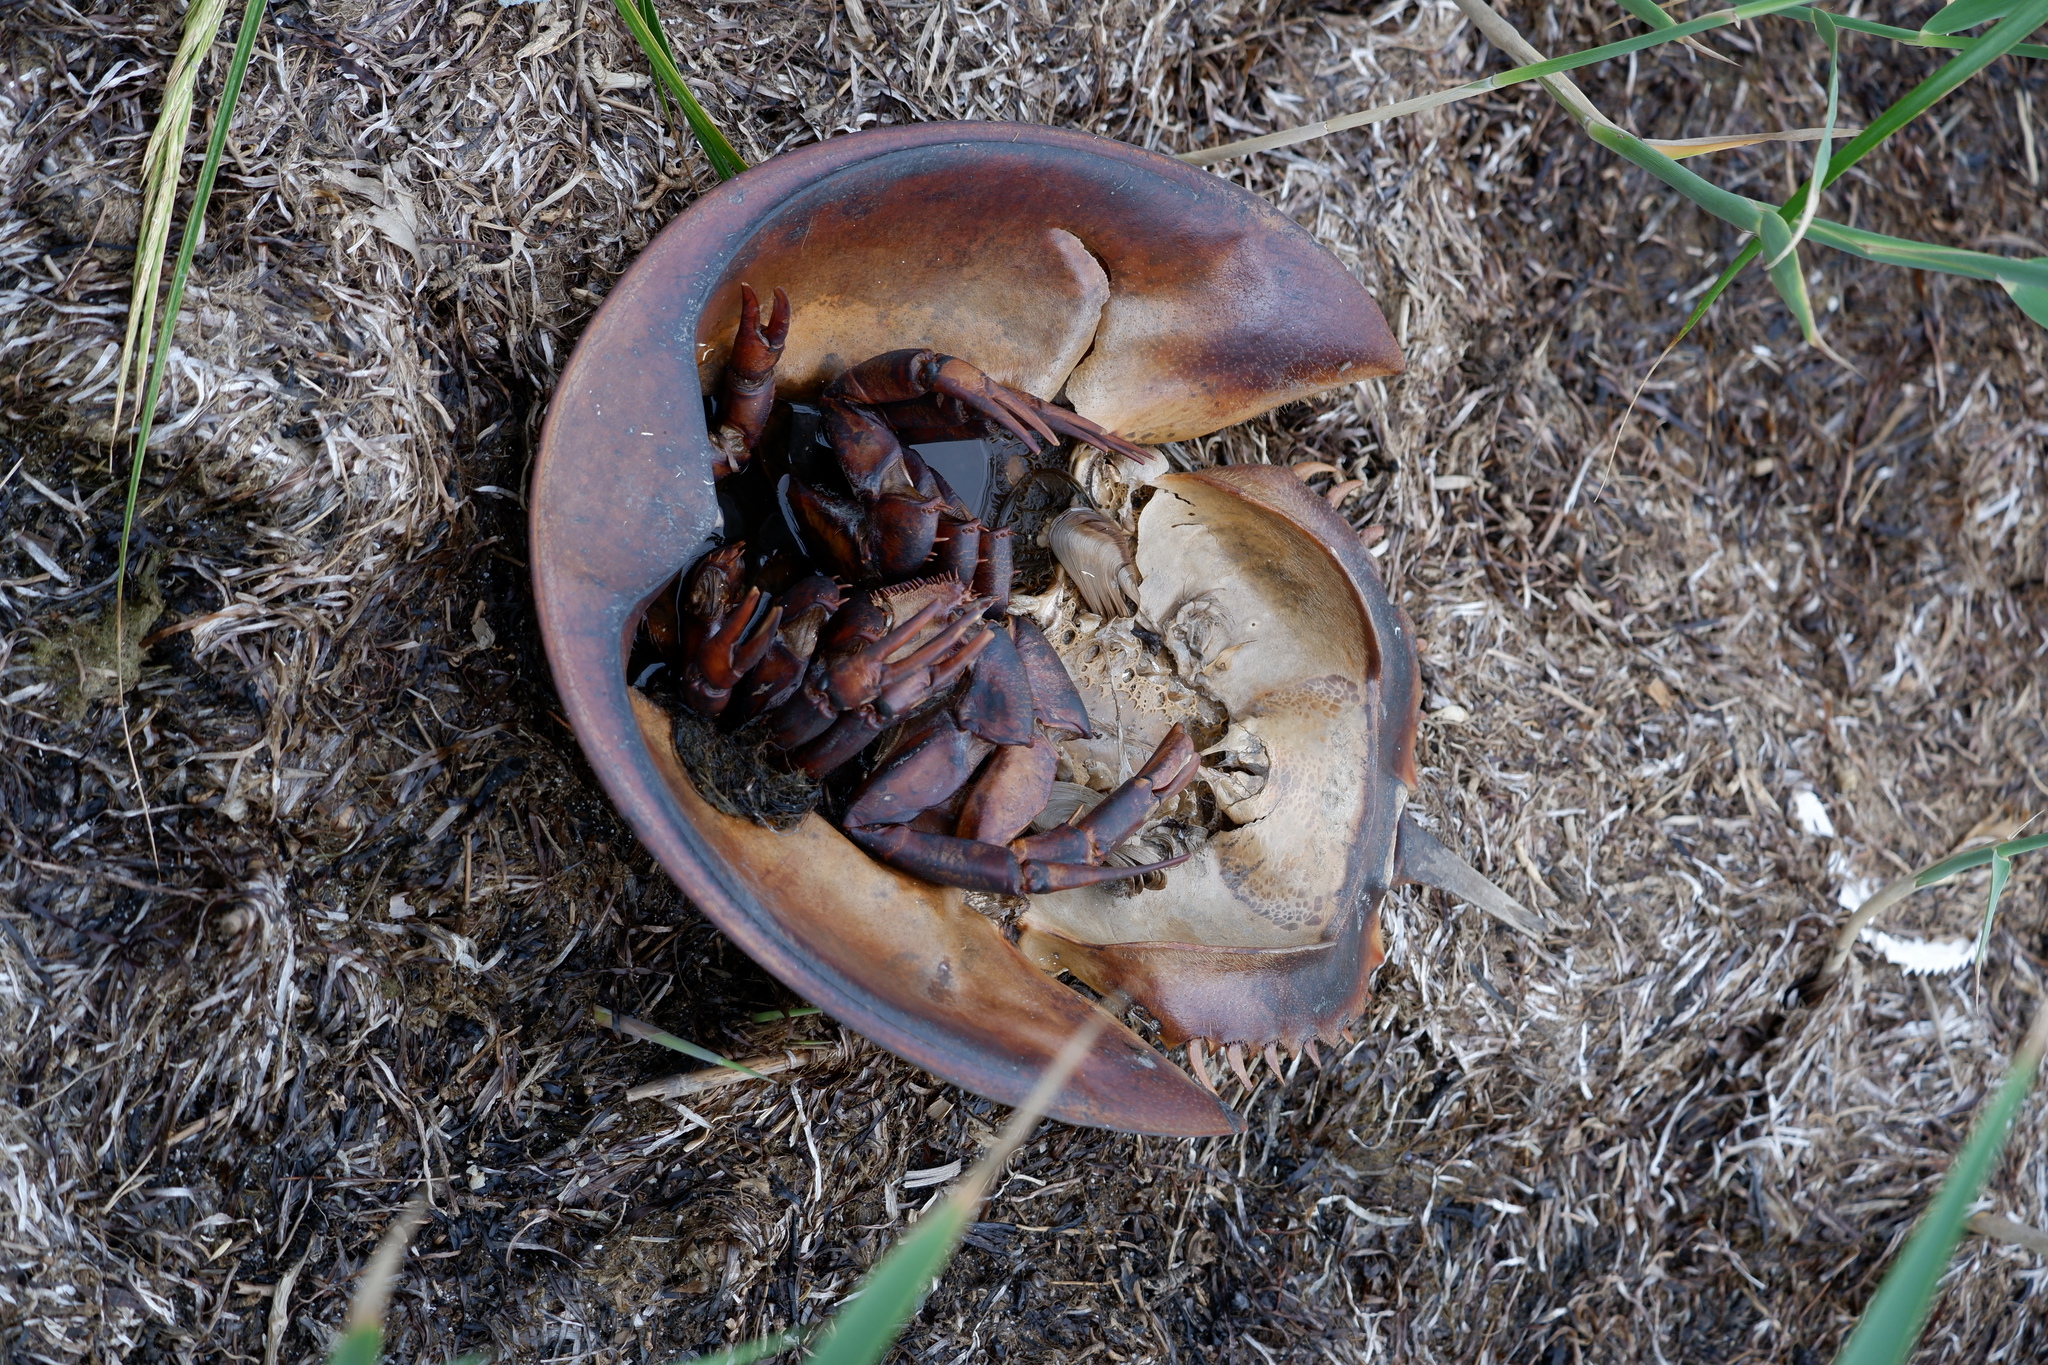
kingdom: Animalia
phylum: Arthropoda
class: Merostomata
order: Xiphosurida
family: Limulidae
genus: Limulus
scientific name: Limulus polyphemus
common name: Horseshoe crab
